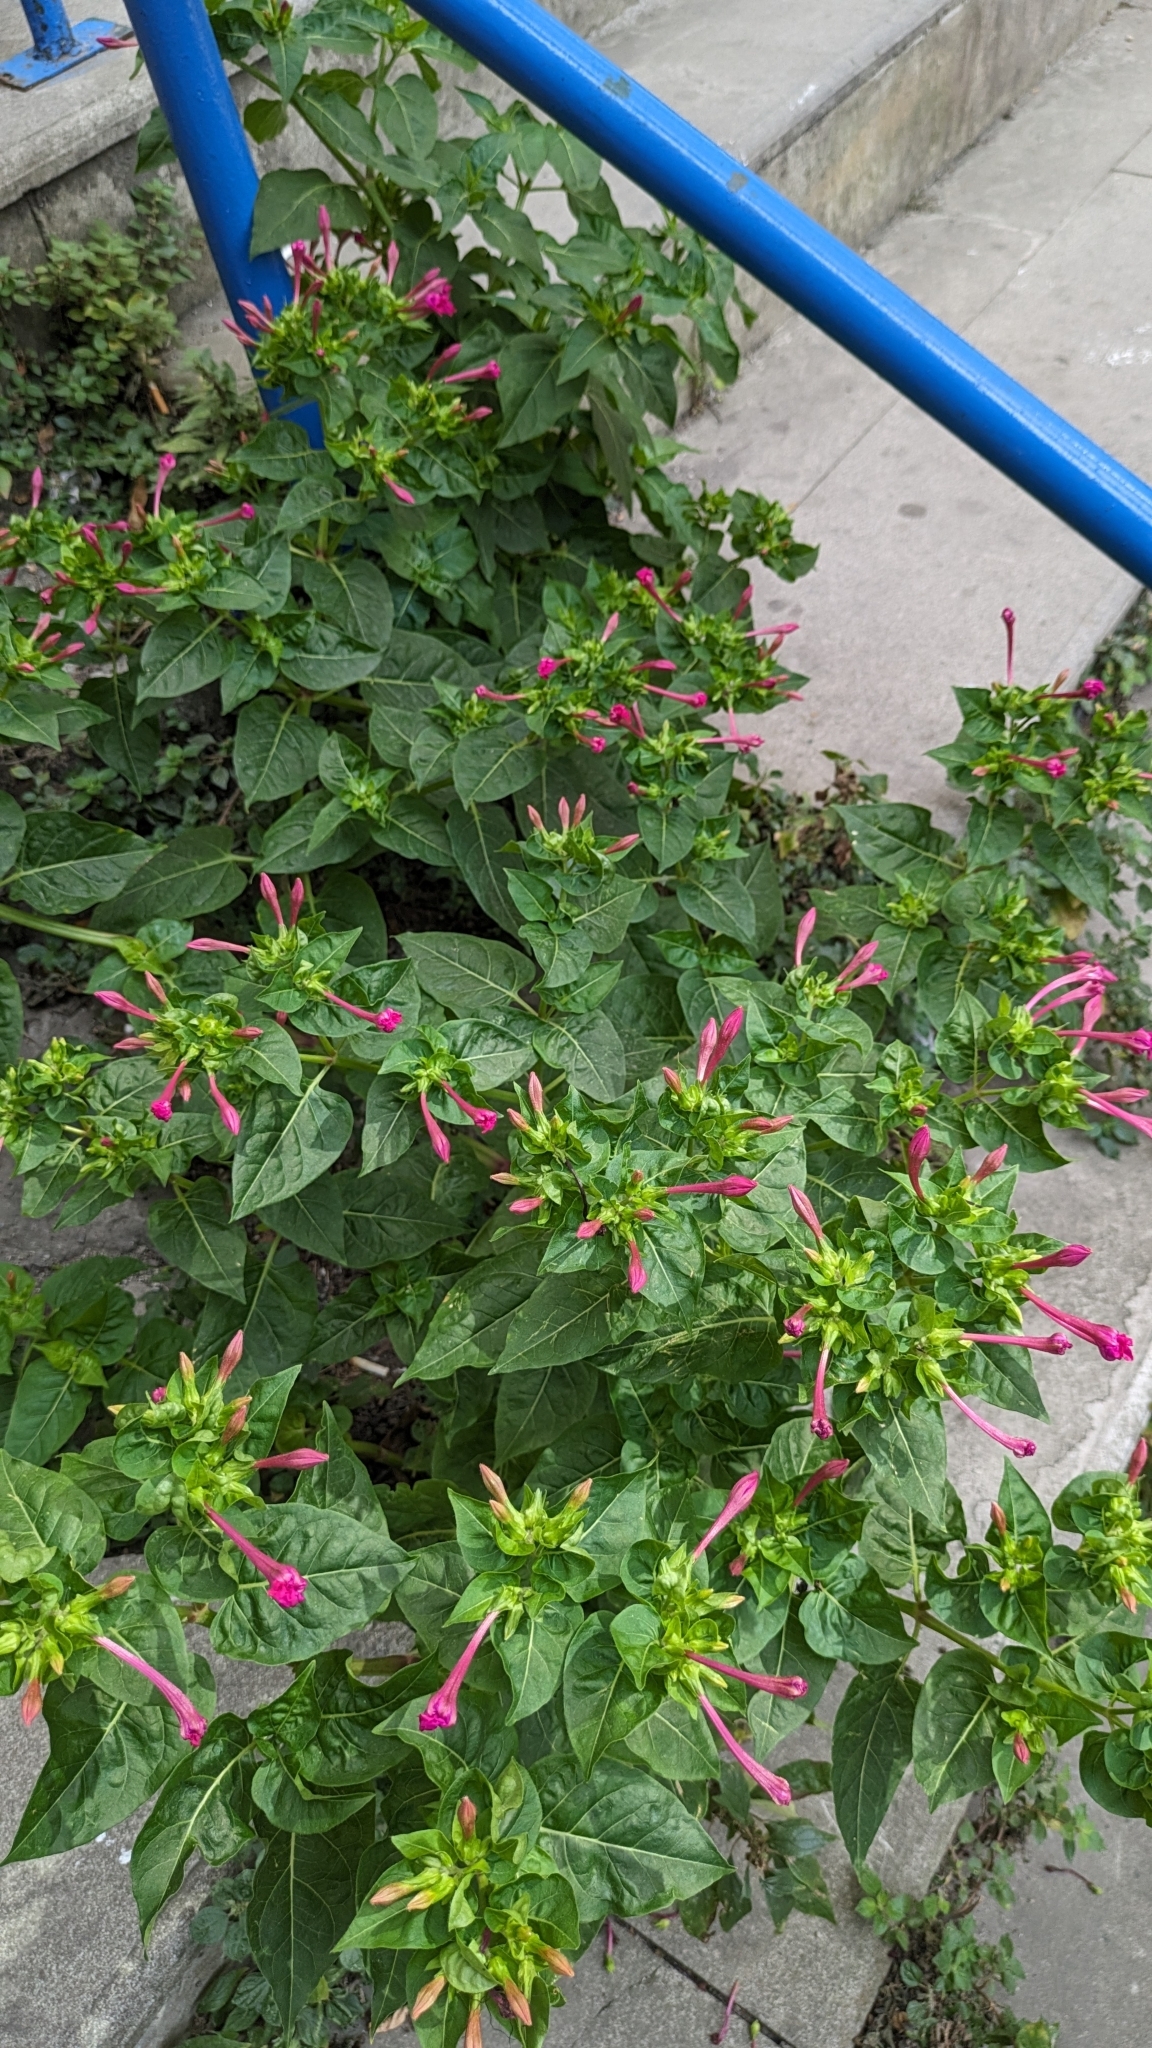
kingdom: Plantae
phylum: Tracheophyta
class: Magnoliopsida
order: Caryophyllales
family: Nyctaginaceae
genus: Mirabilis
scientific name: Mirabilis jalapa
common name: Marvel-of-peru
